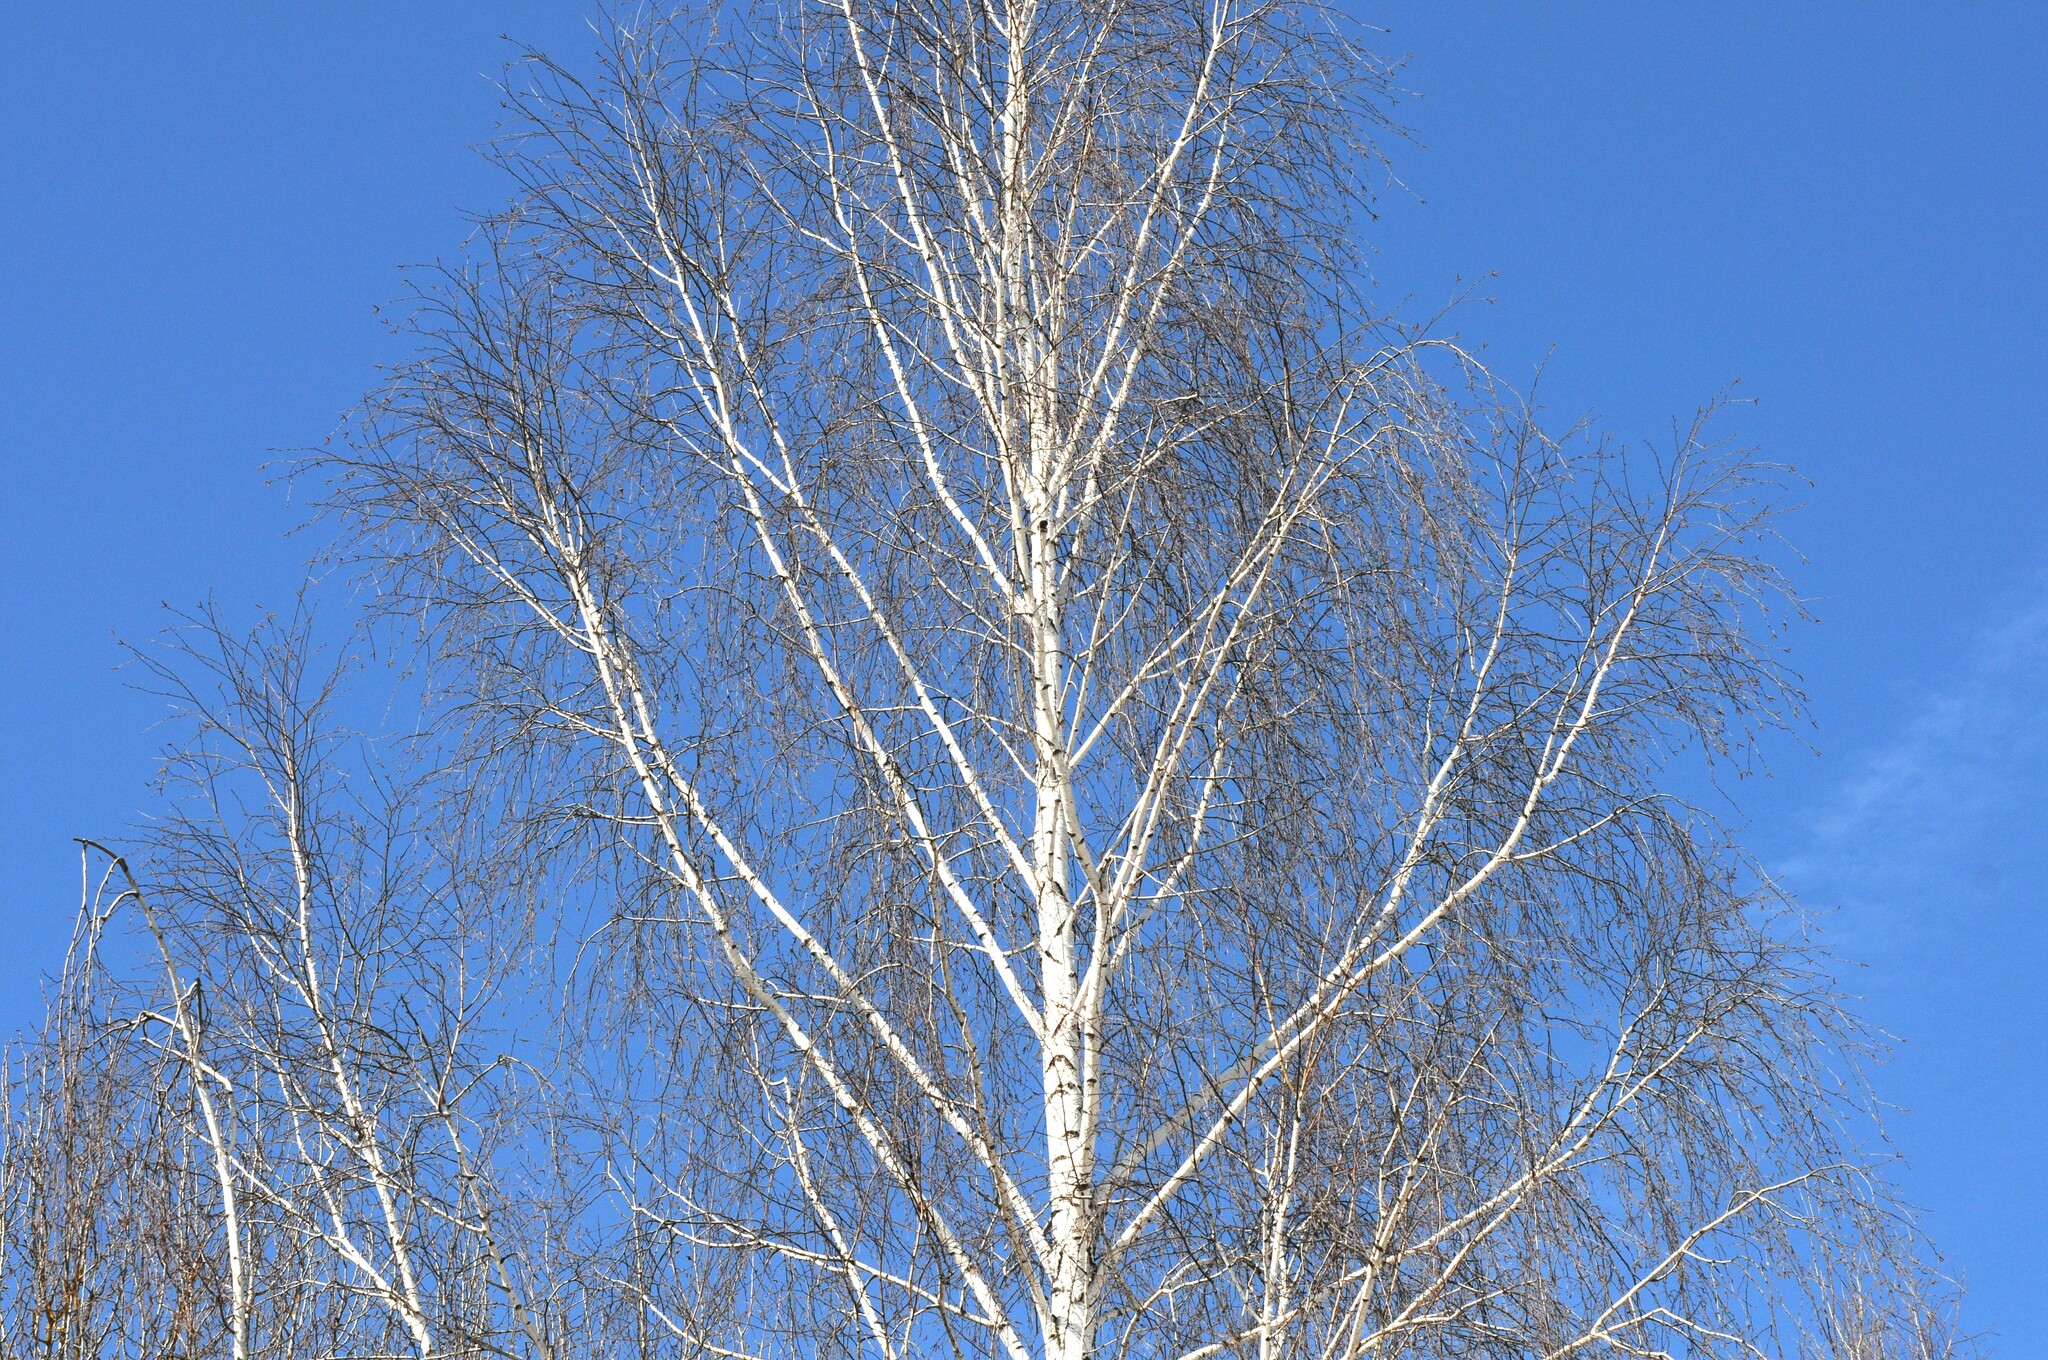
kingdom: Plantae
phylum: Tracheophyta
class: Magnoliopsida
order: Fagales
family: Betulaceae
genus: Betula
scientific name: Betula pendula
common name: Silver birch
